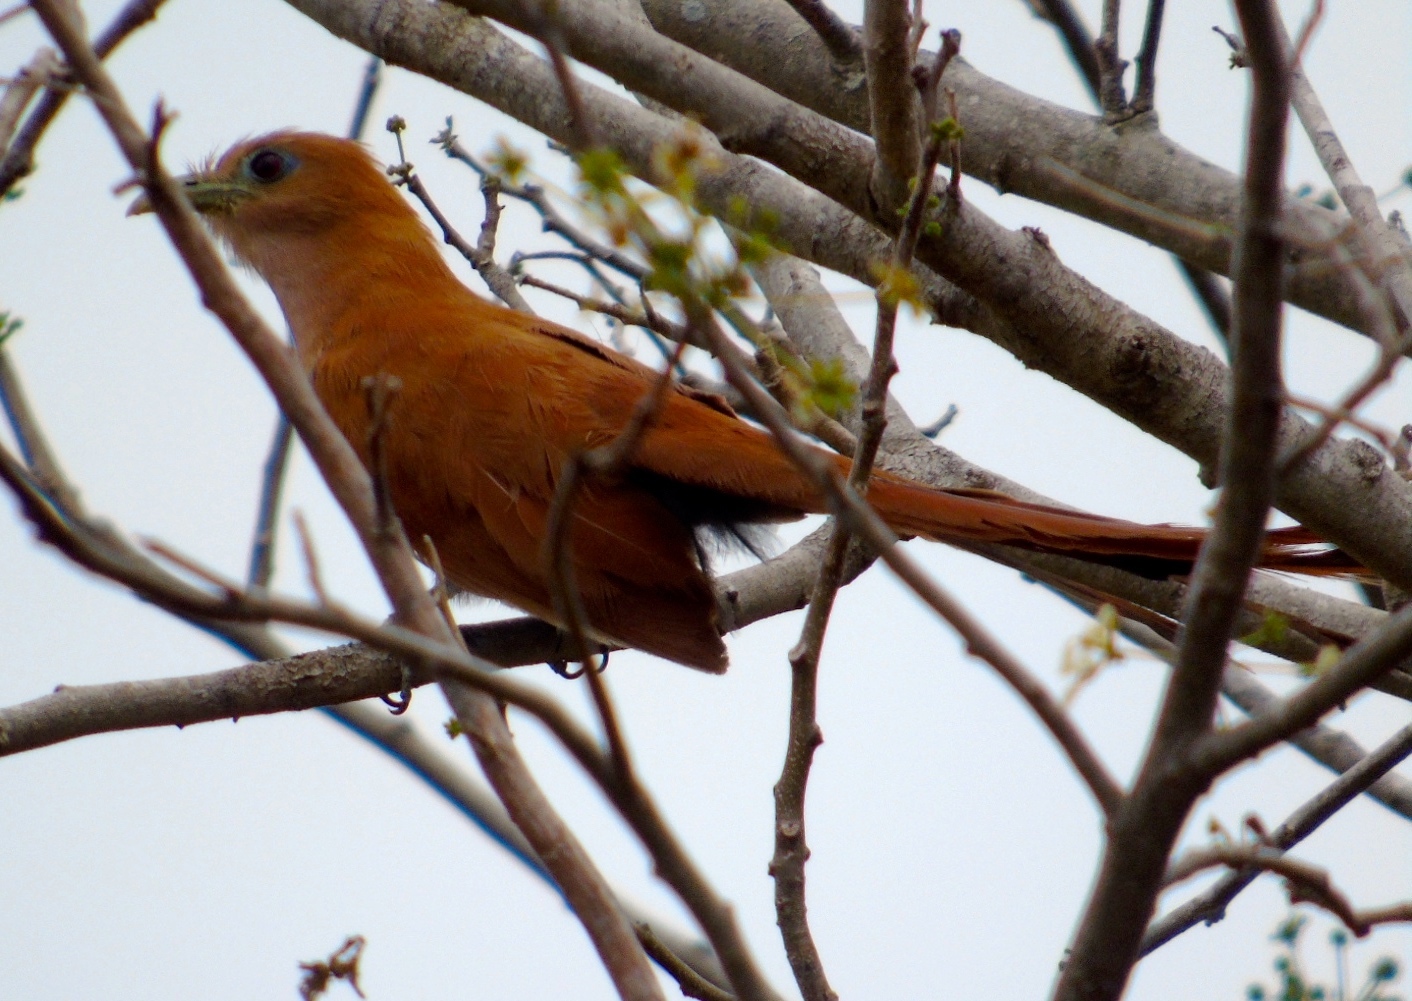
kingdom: Animalia
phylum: Chordata
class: Aves
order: Cuculiformes
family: Cuculidae
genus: Piaya
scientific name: Piaya cayana
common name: Squirrel cuckoo
